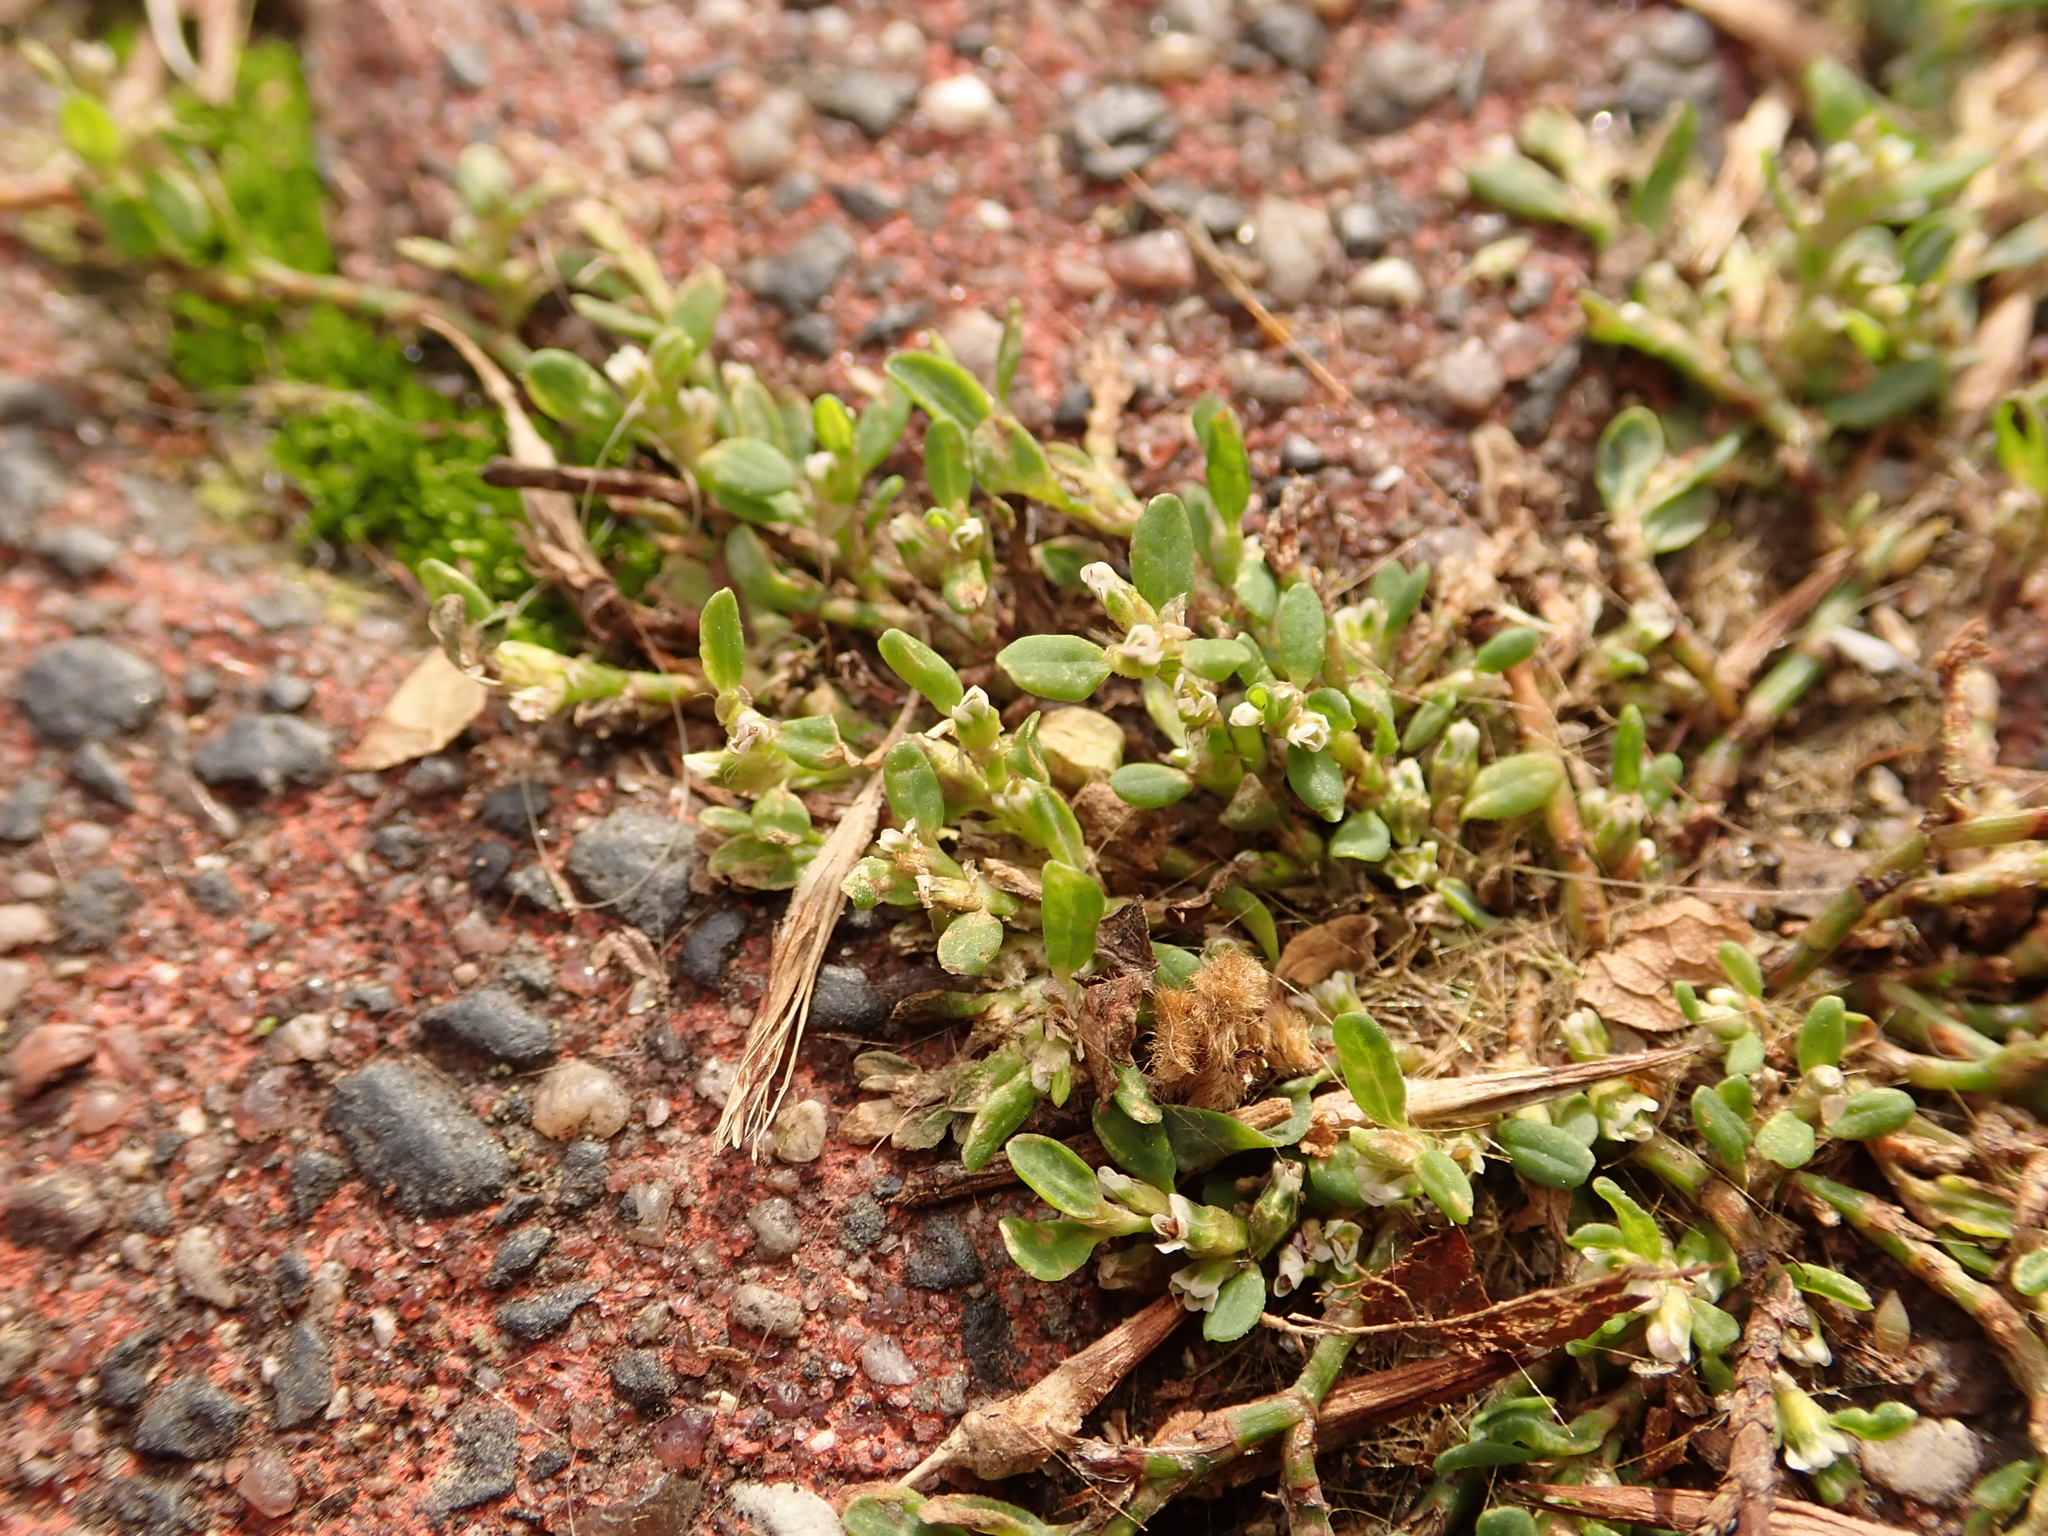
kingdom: Plantae
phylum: Tracheophyta
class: Magnoliopsida
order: Caryophyllales
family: Polygonaceae
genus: Polygonum
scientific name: Polygonum aviculare
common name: Prostrate knotweed
